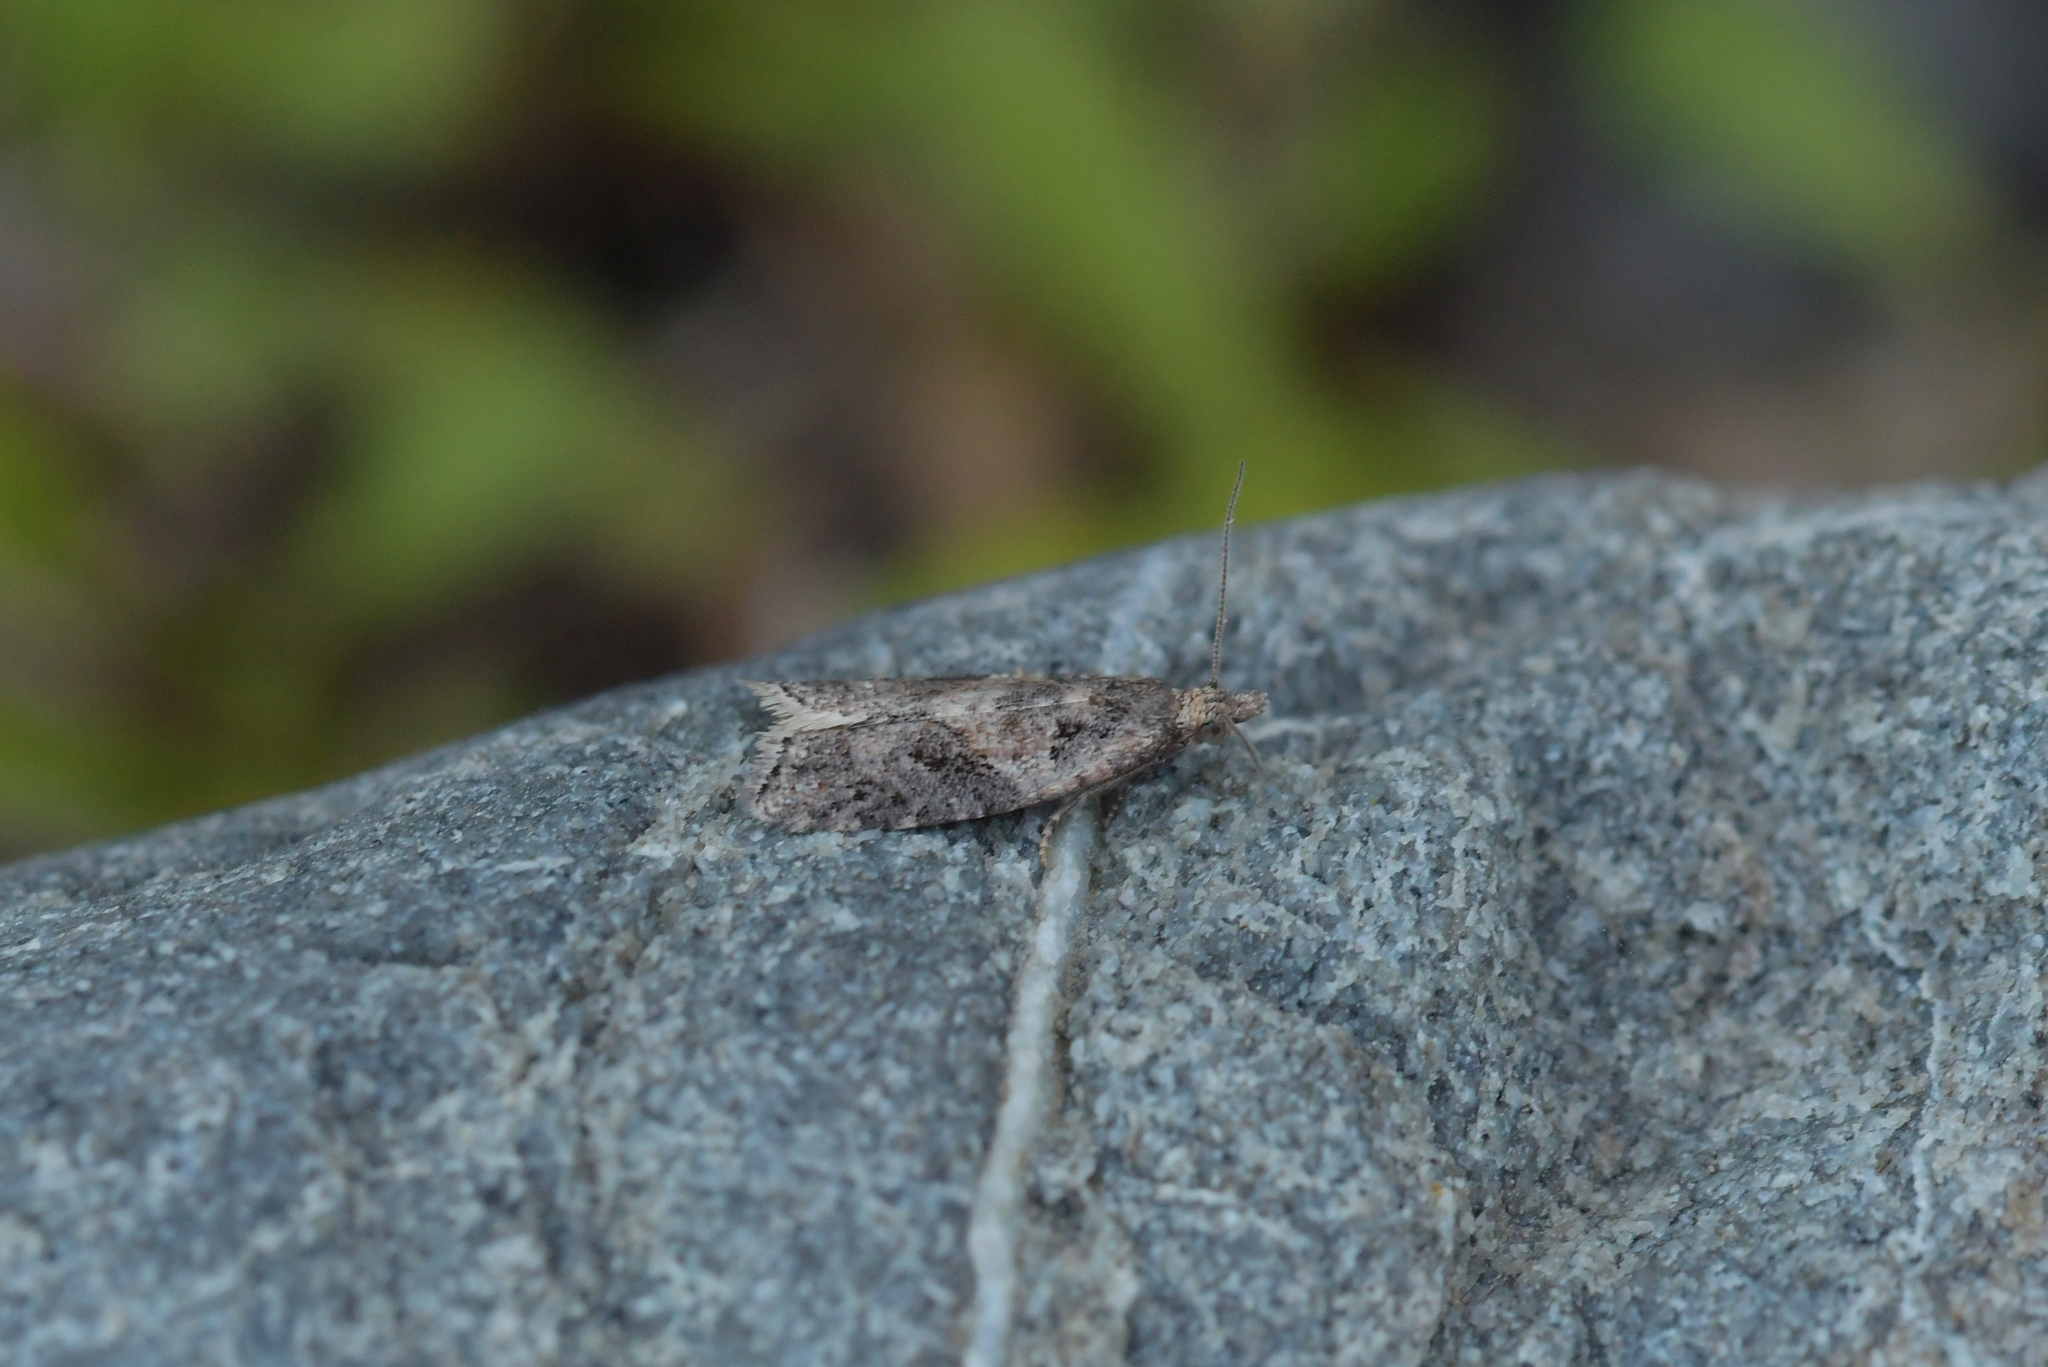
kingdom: Animalia
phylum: Arthropoda
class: Insecta
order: Lepidoptera
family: Tortricidae
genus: Capua
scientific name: Capua semiferana
